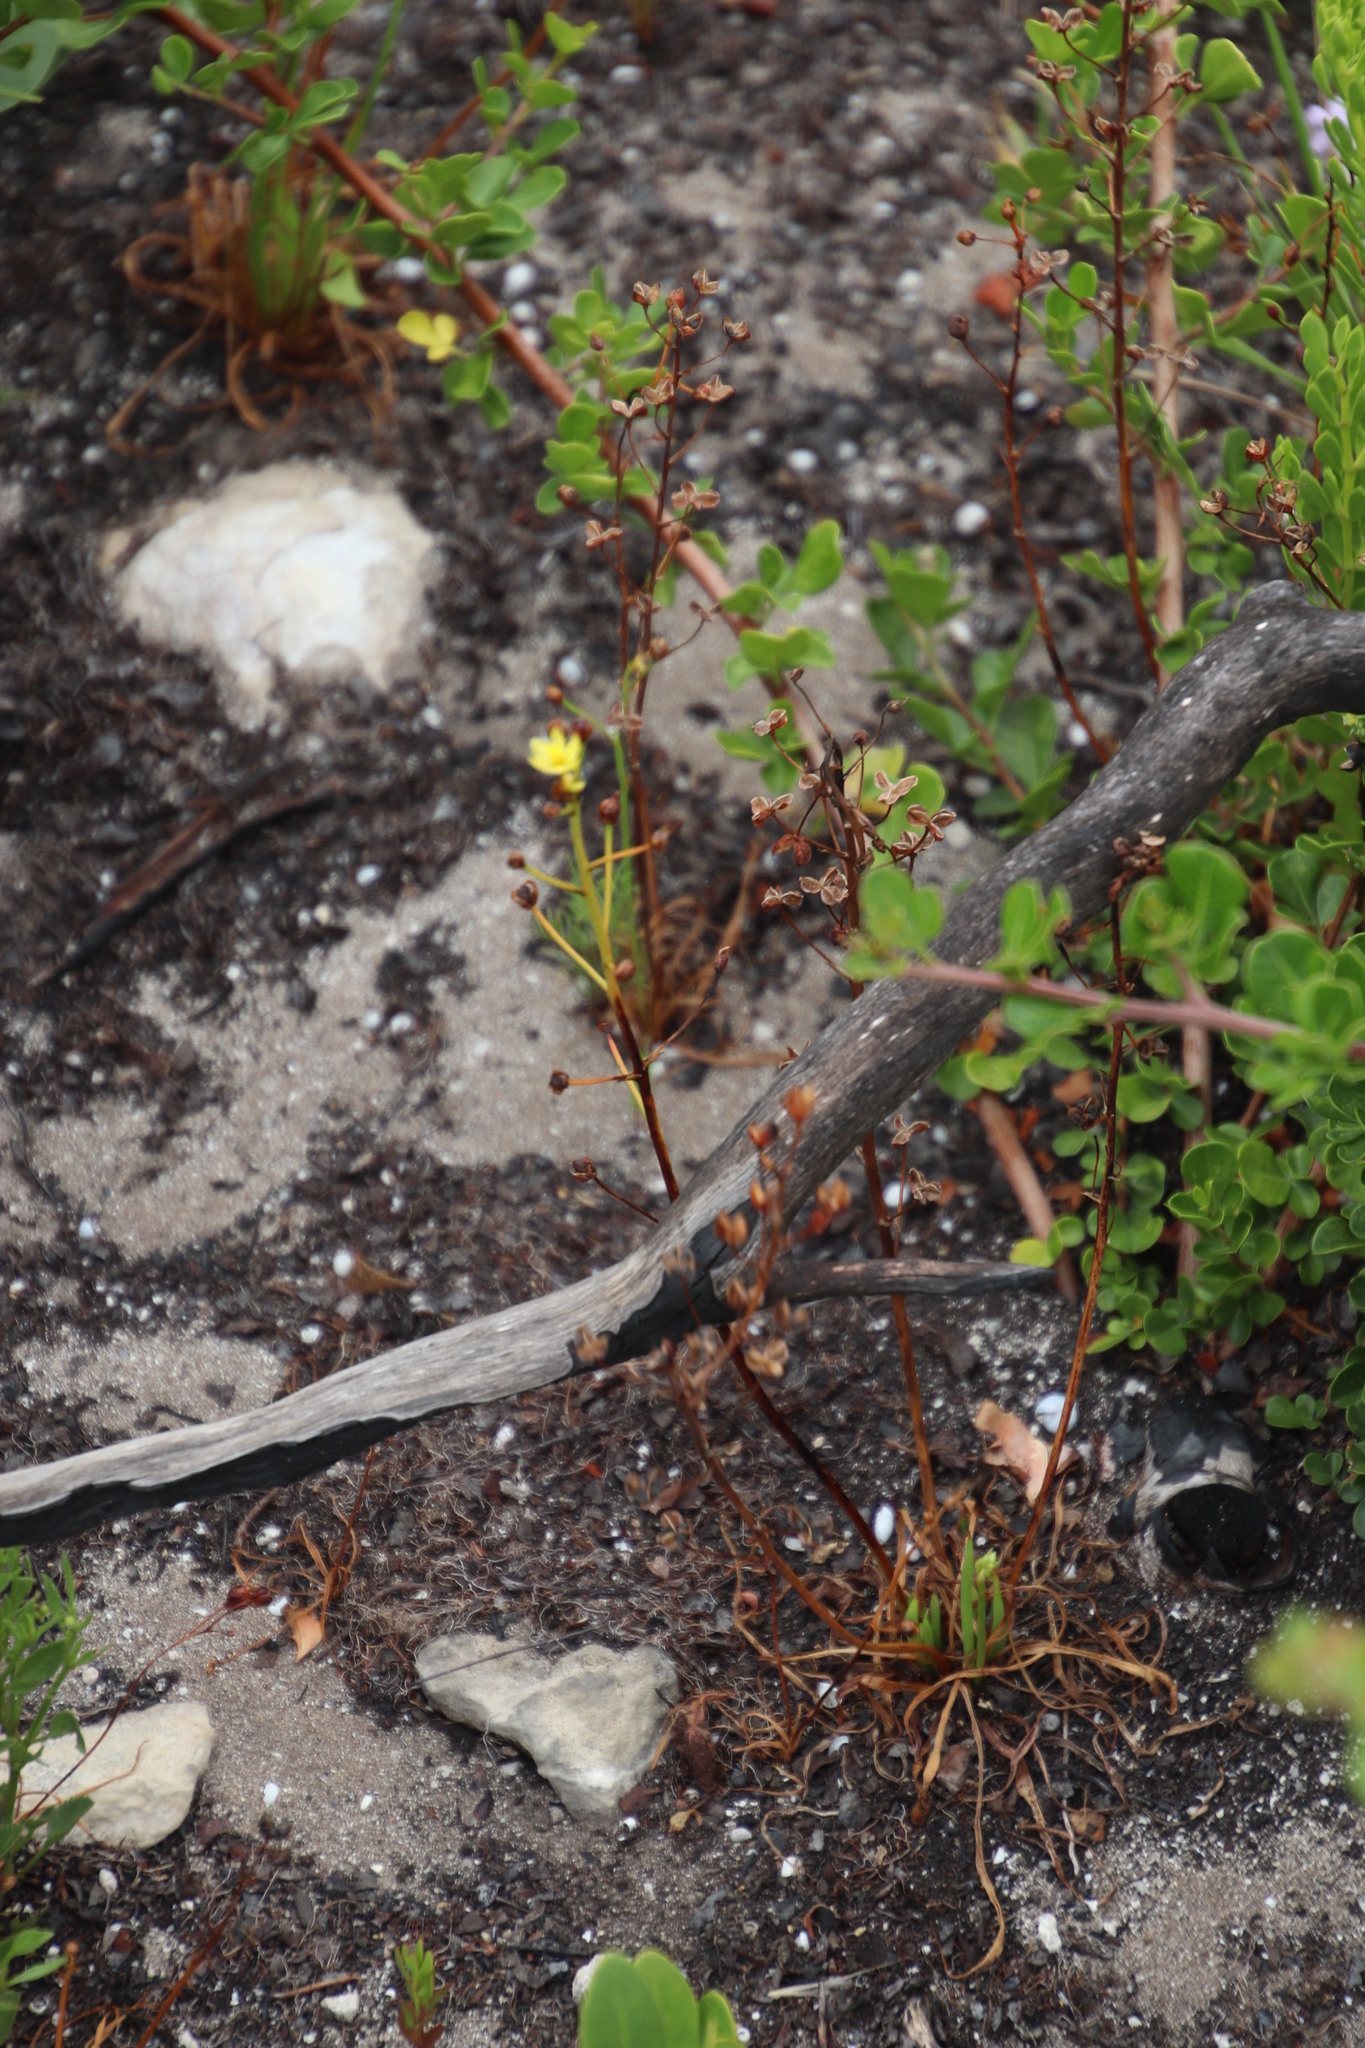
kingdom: Plantae
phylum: Tracheophyta
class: Liliopsida
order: Asparagales
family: Asphodelaceae
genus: Bulbine
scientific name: Bulbine annua
